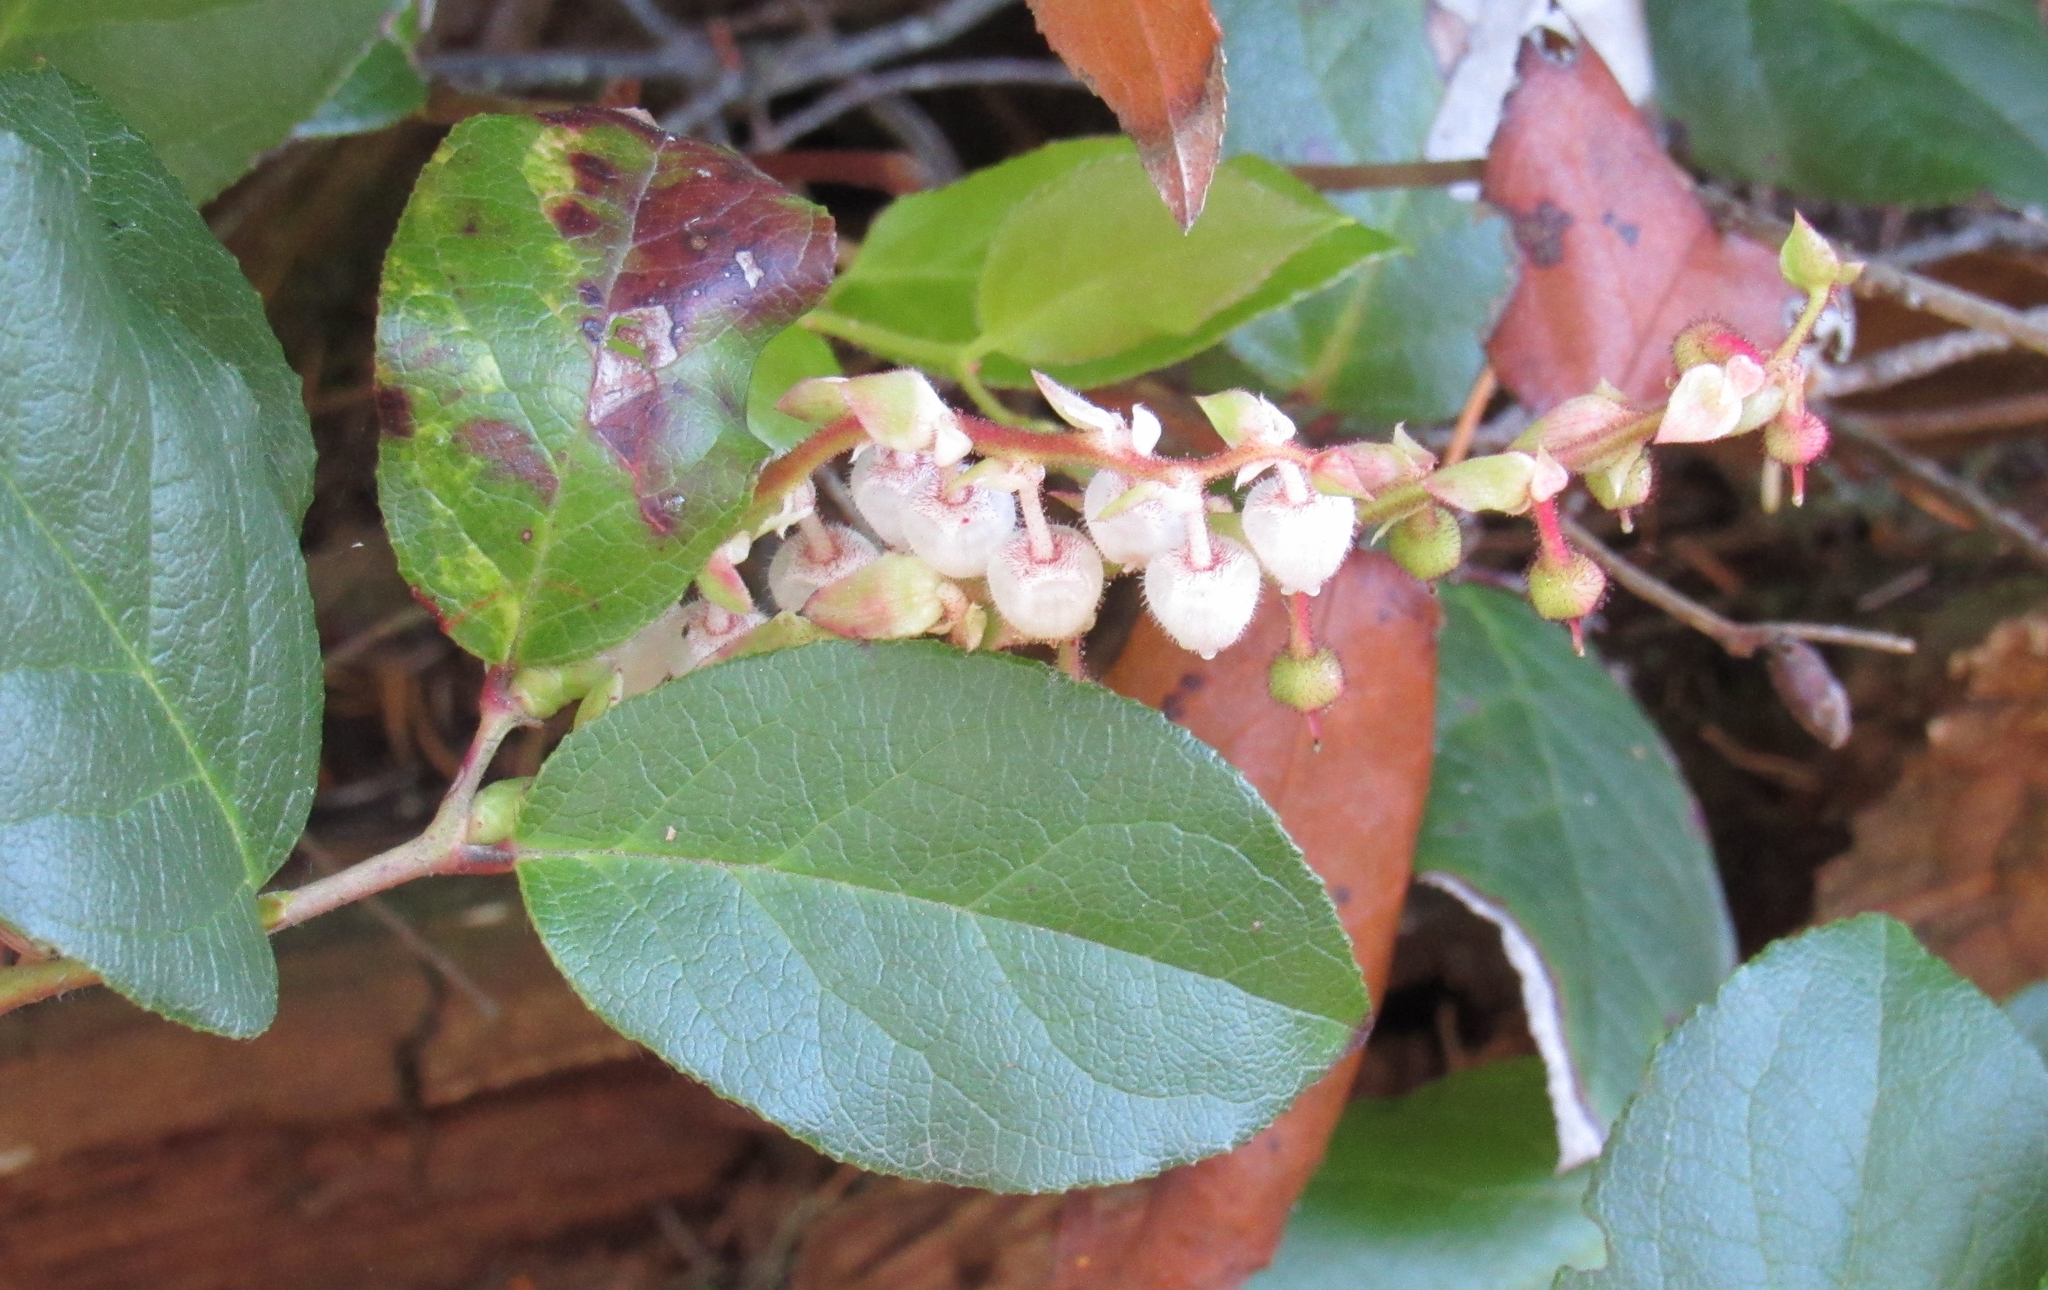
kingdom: Plantae
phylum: Tracheophyta
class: Magnoliopsida
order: Ericales
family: Ericaceae
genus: Gaultheria
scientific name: Gaultheria shallon
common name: Shallon
